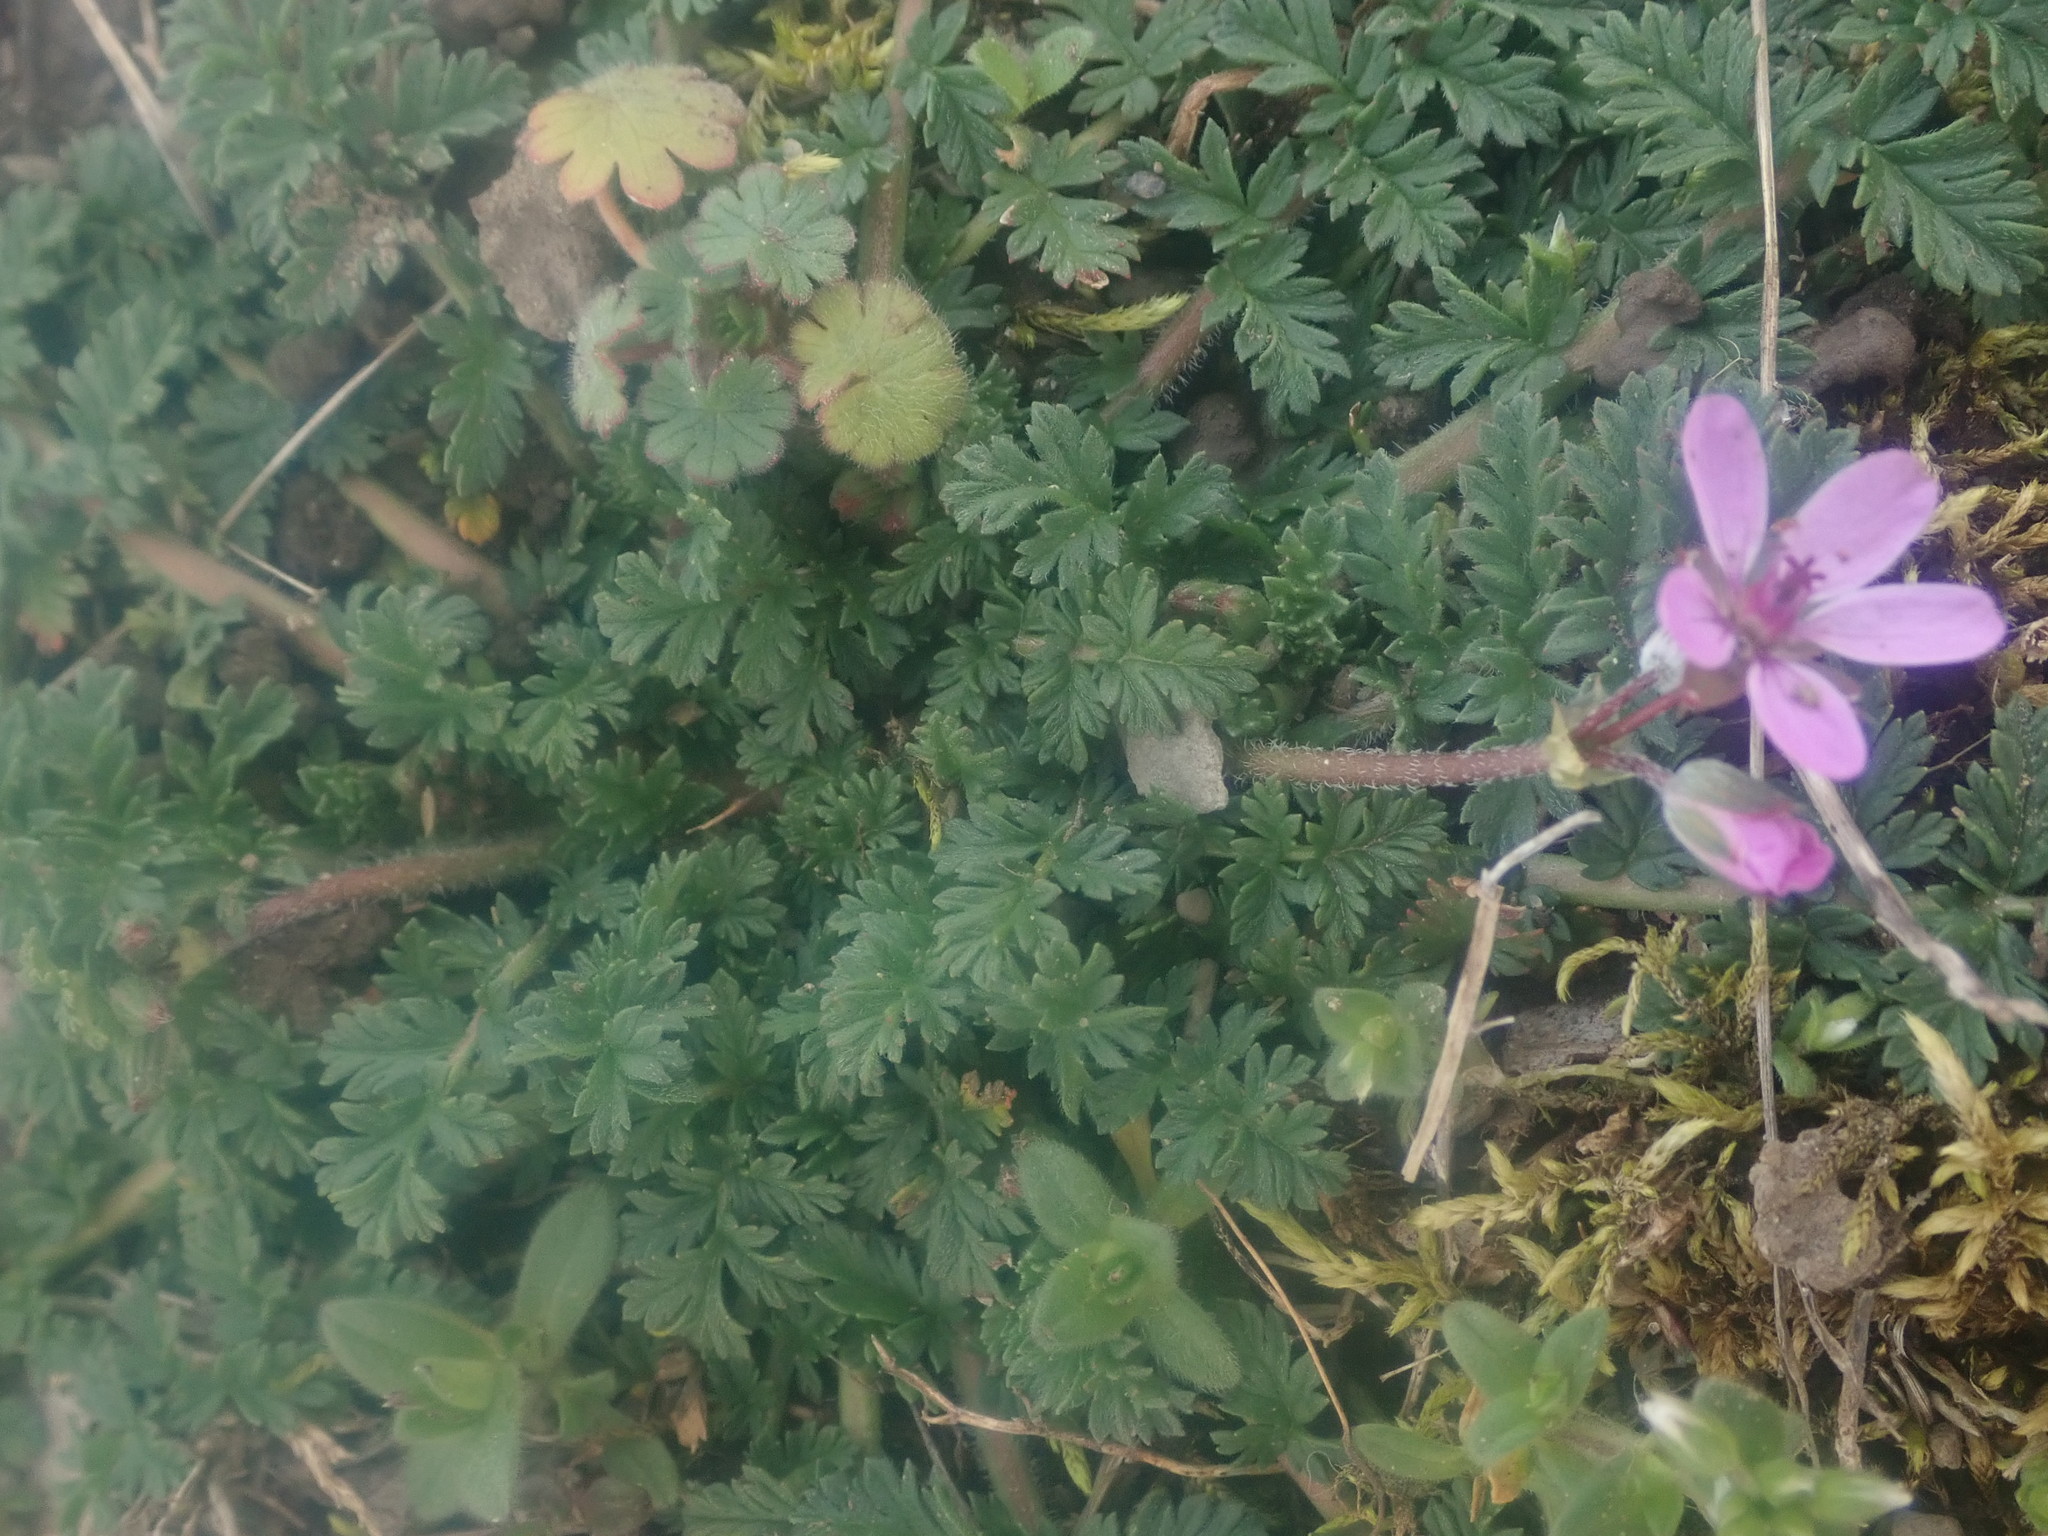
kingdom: Plantae
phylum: Tracheophyta
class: Magnoliopsida
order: Geraniales
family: Geraniaceae
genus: Erodium
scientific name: Erodium cicutarium
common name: Common stork's-bill
